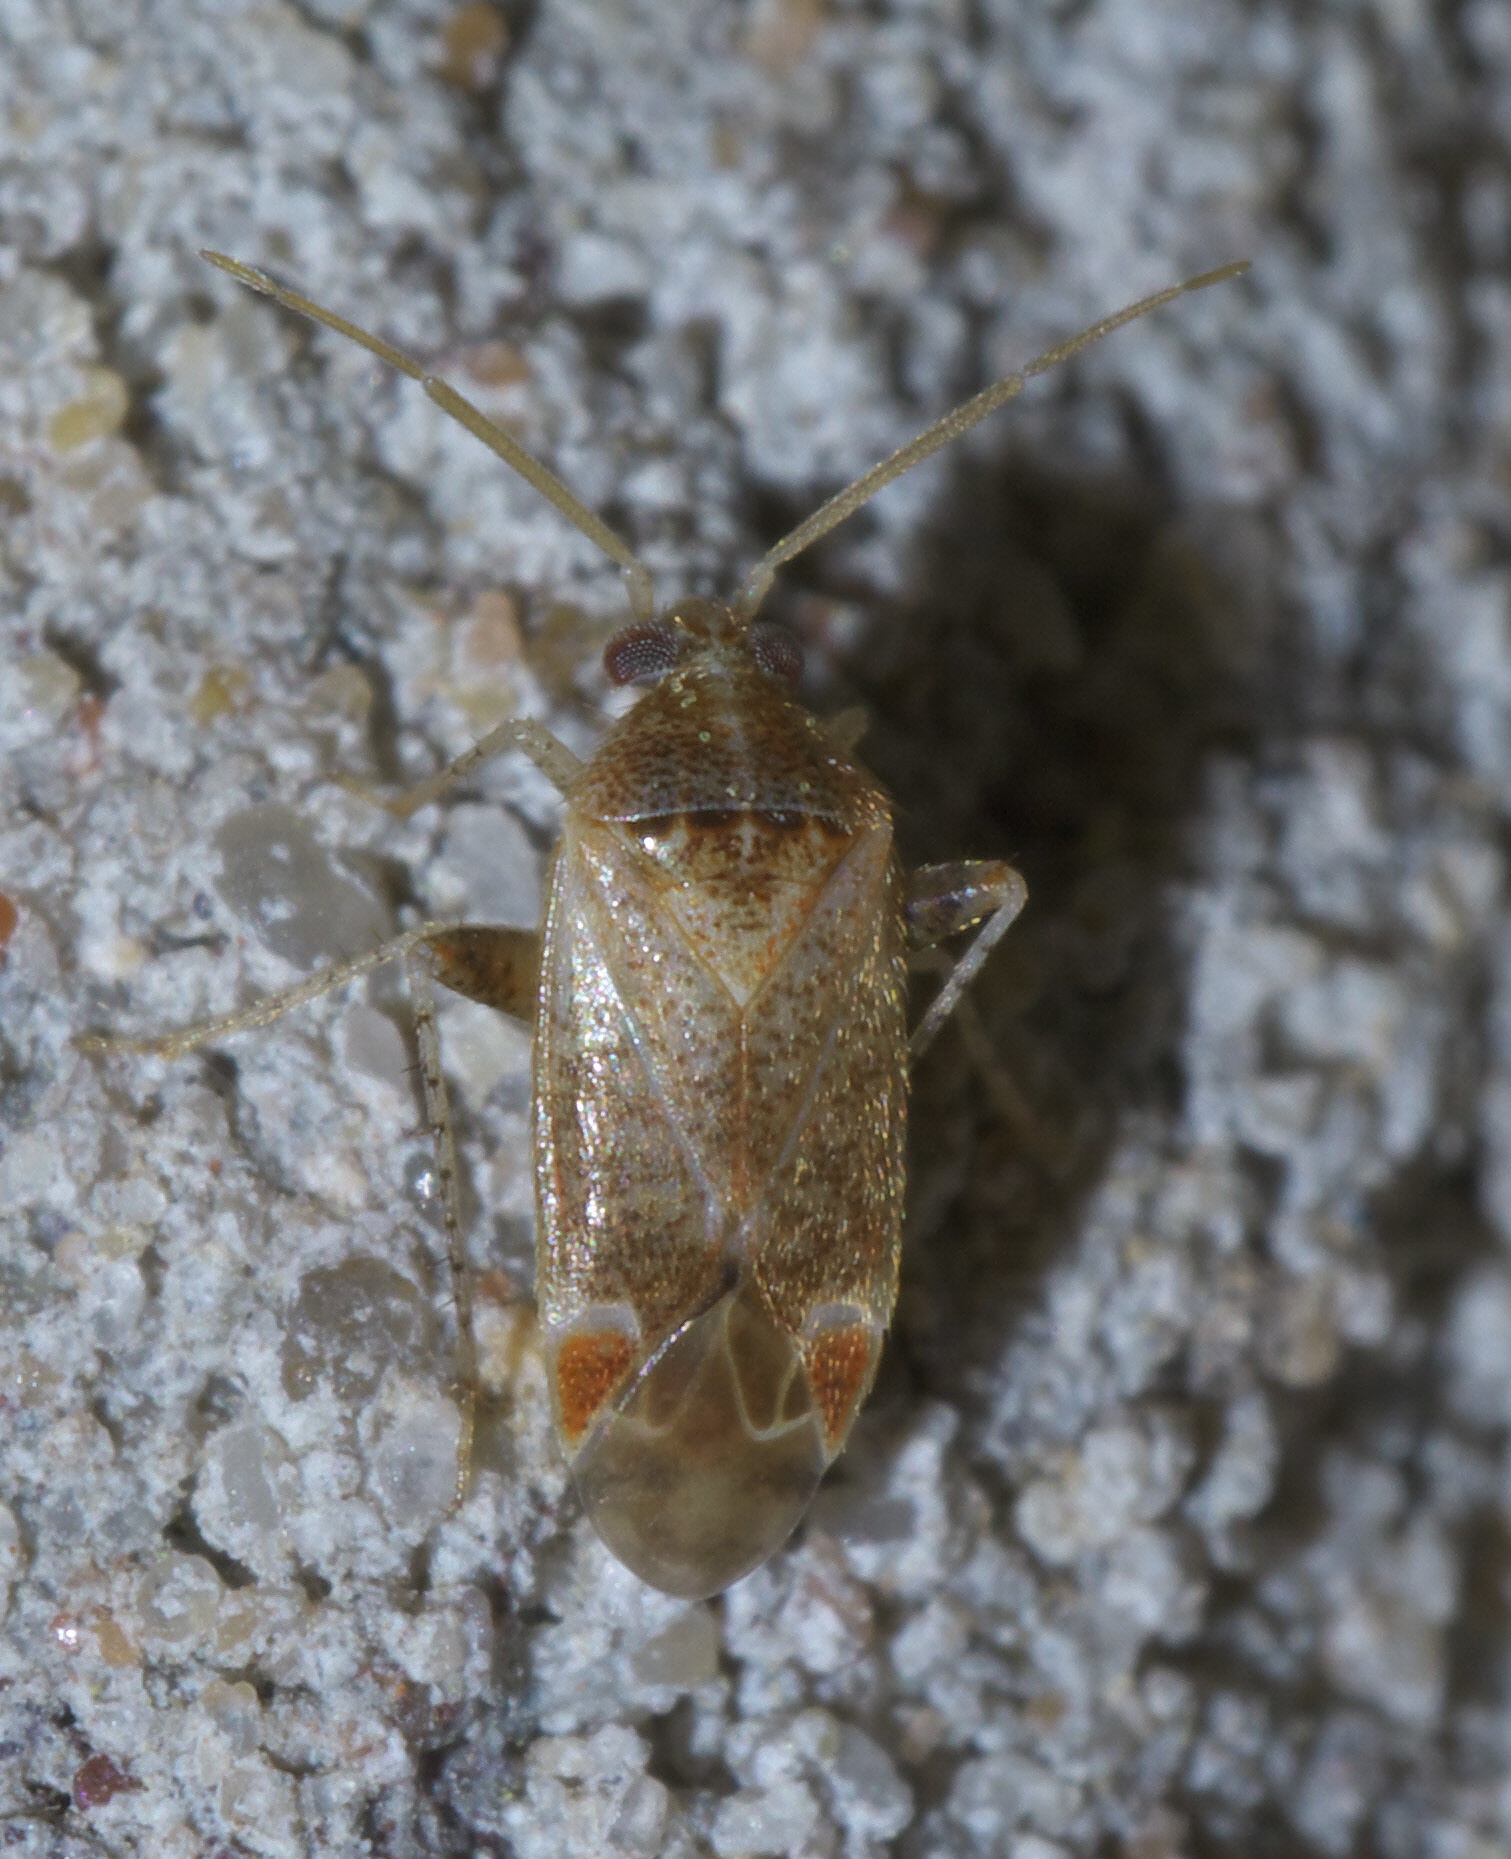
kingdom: Animalia
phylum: Arthropoda
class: Insecta
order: Hemiptera
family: Miridae
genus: Hamatophylus
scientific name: Hamatophylus guttulosus
